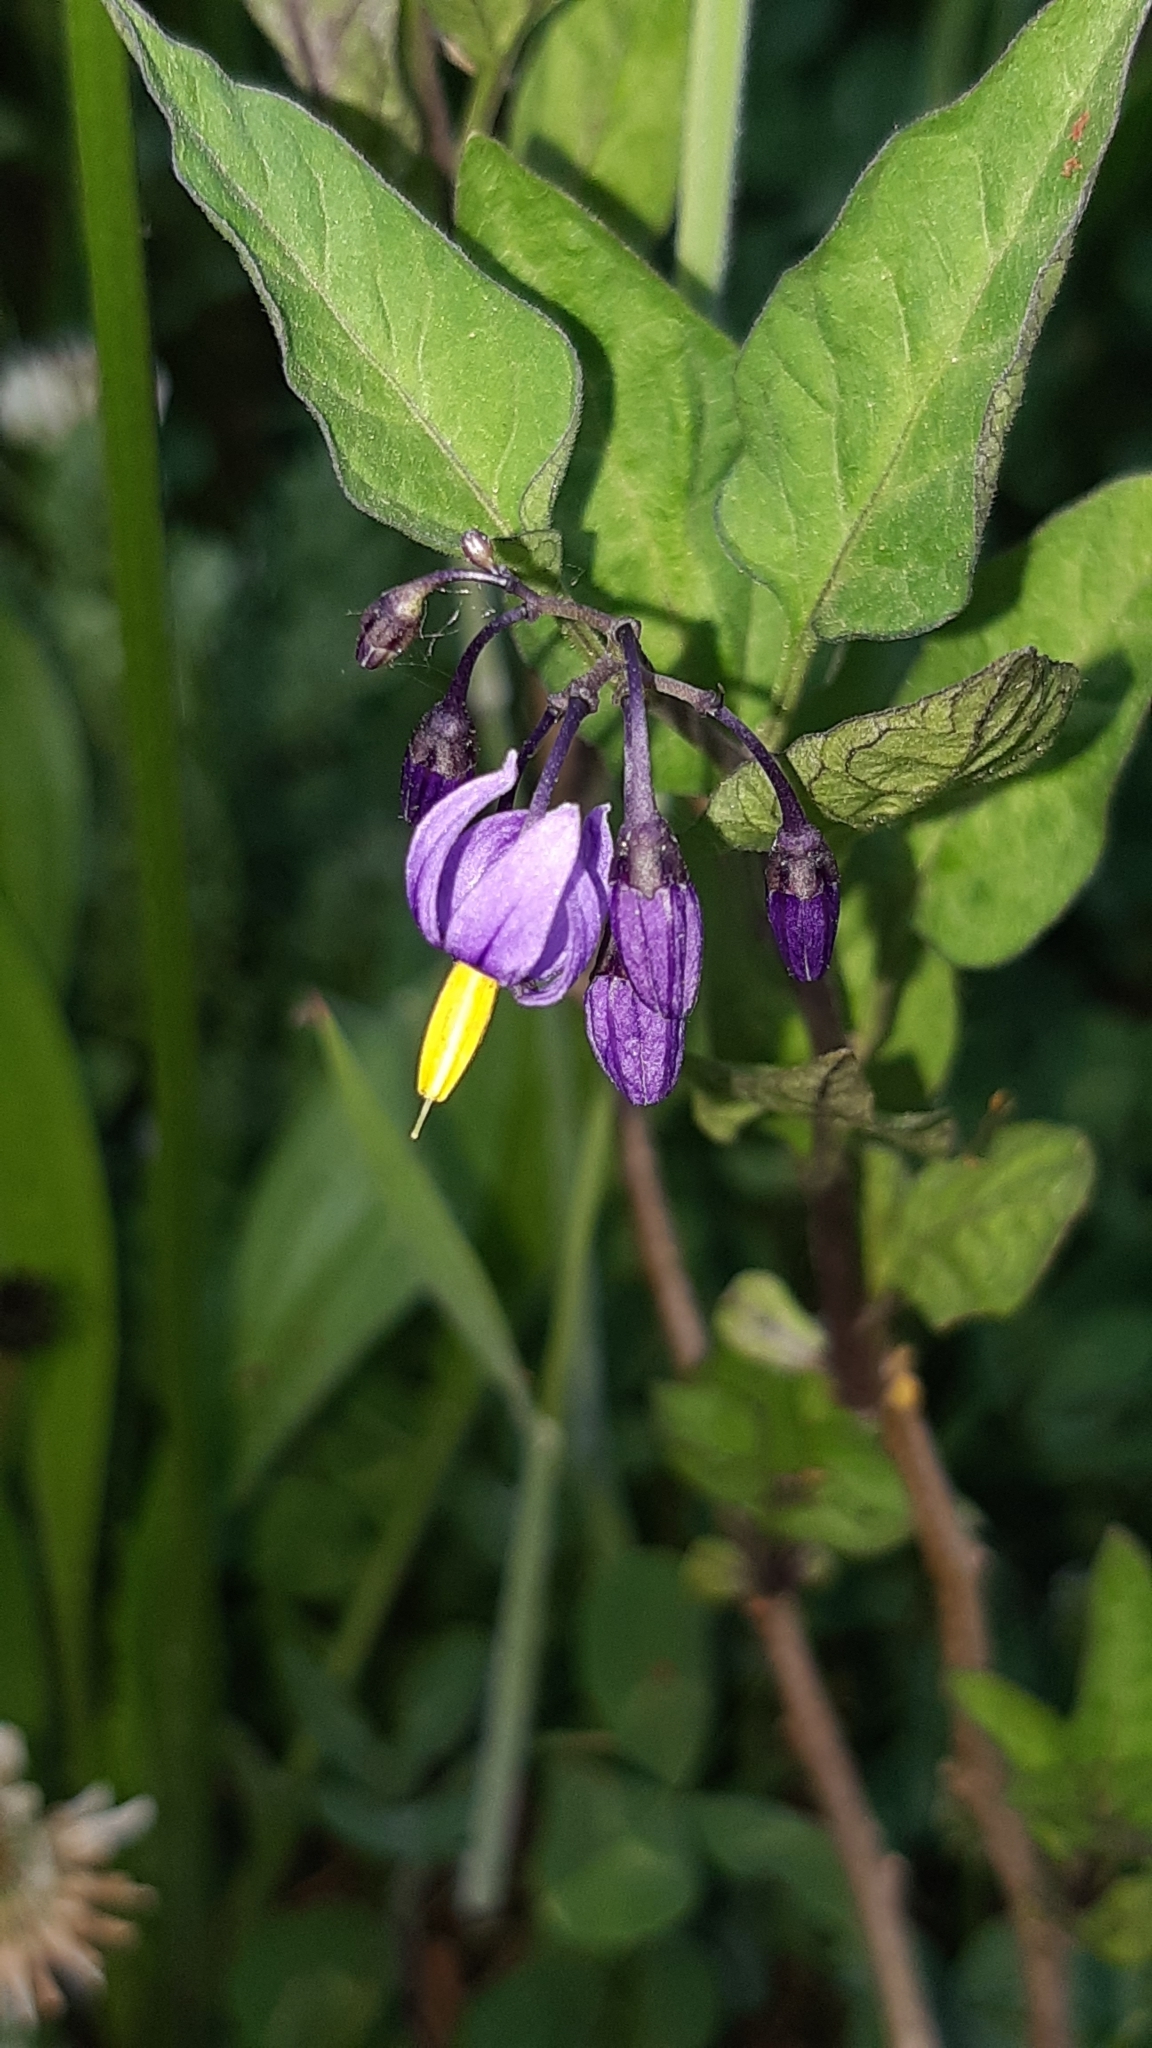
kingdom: Plantae
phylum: Tracheophyta
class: Magnoliopsida
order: Solanales
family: Solanaceae
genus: Solanum
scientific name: Solanum dulcamara
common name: Climbing nightshade
